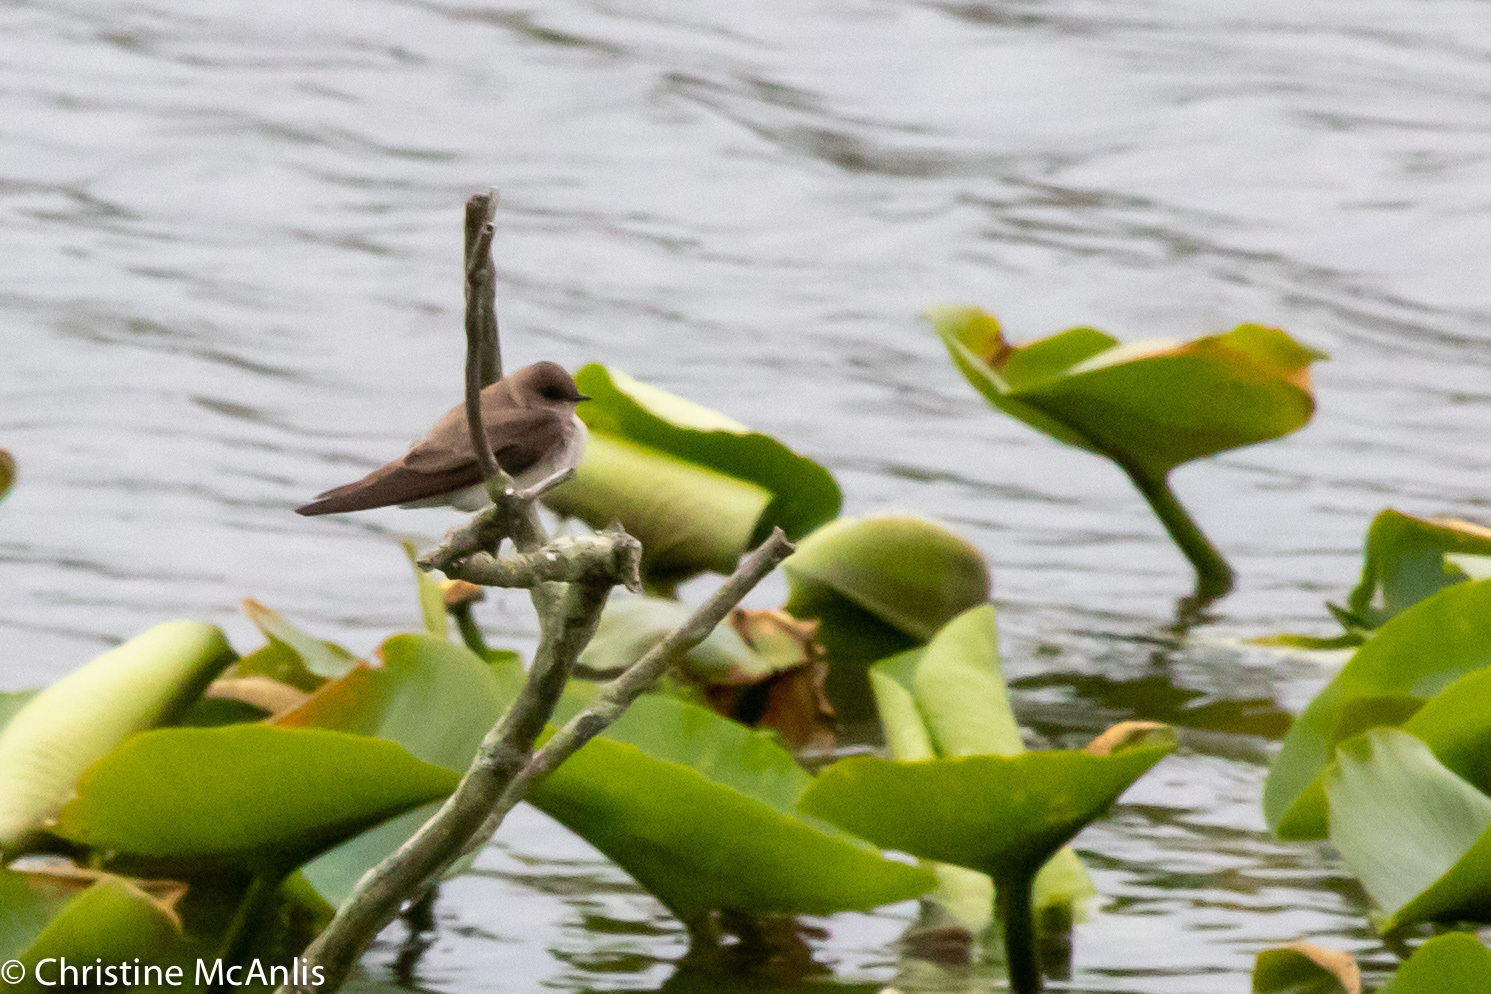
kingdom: Animalia
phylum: Chordata
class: Aves
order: Passeriformes
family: Hirundinidae
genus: Stelgidopteryx
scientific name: Stelgidopteryx serripennis
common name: Northern rough-winged swallow
